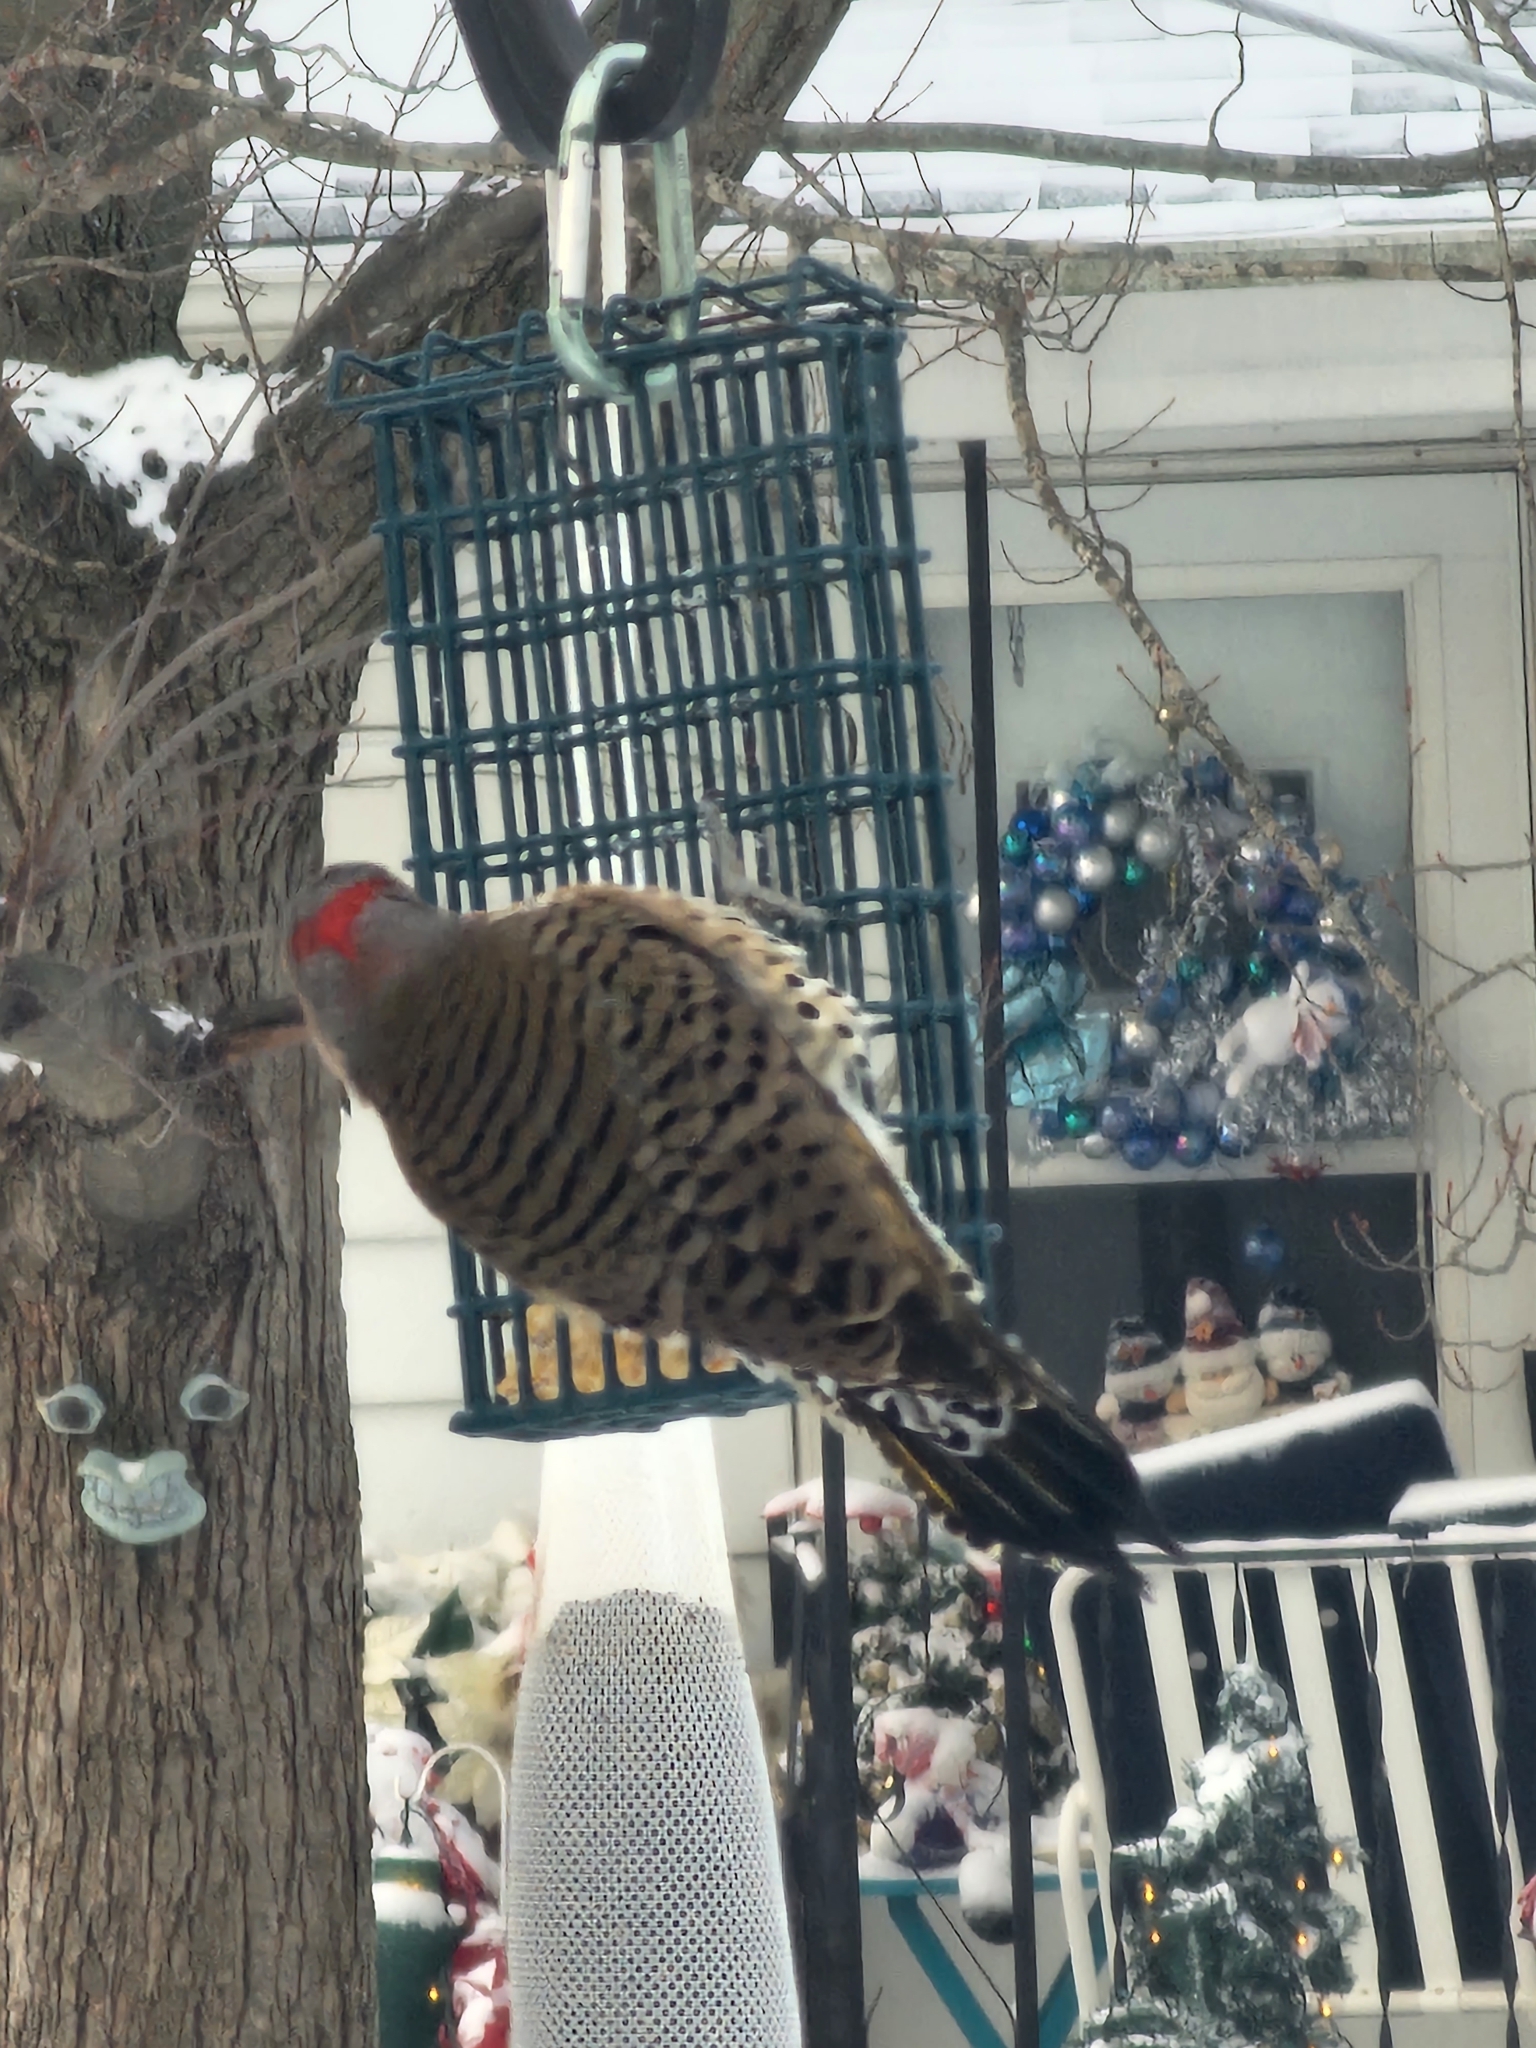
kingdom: Animalia
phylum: Chordata
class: Aves
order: Piciformes
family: Picidae
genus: Colaptes
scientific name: Colaptes auratus
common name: Northern flicker
